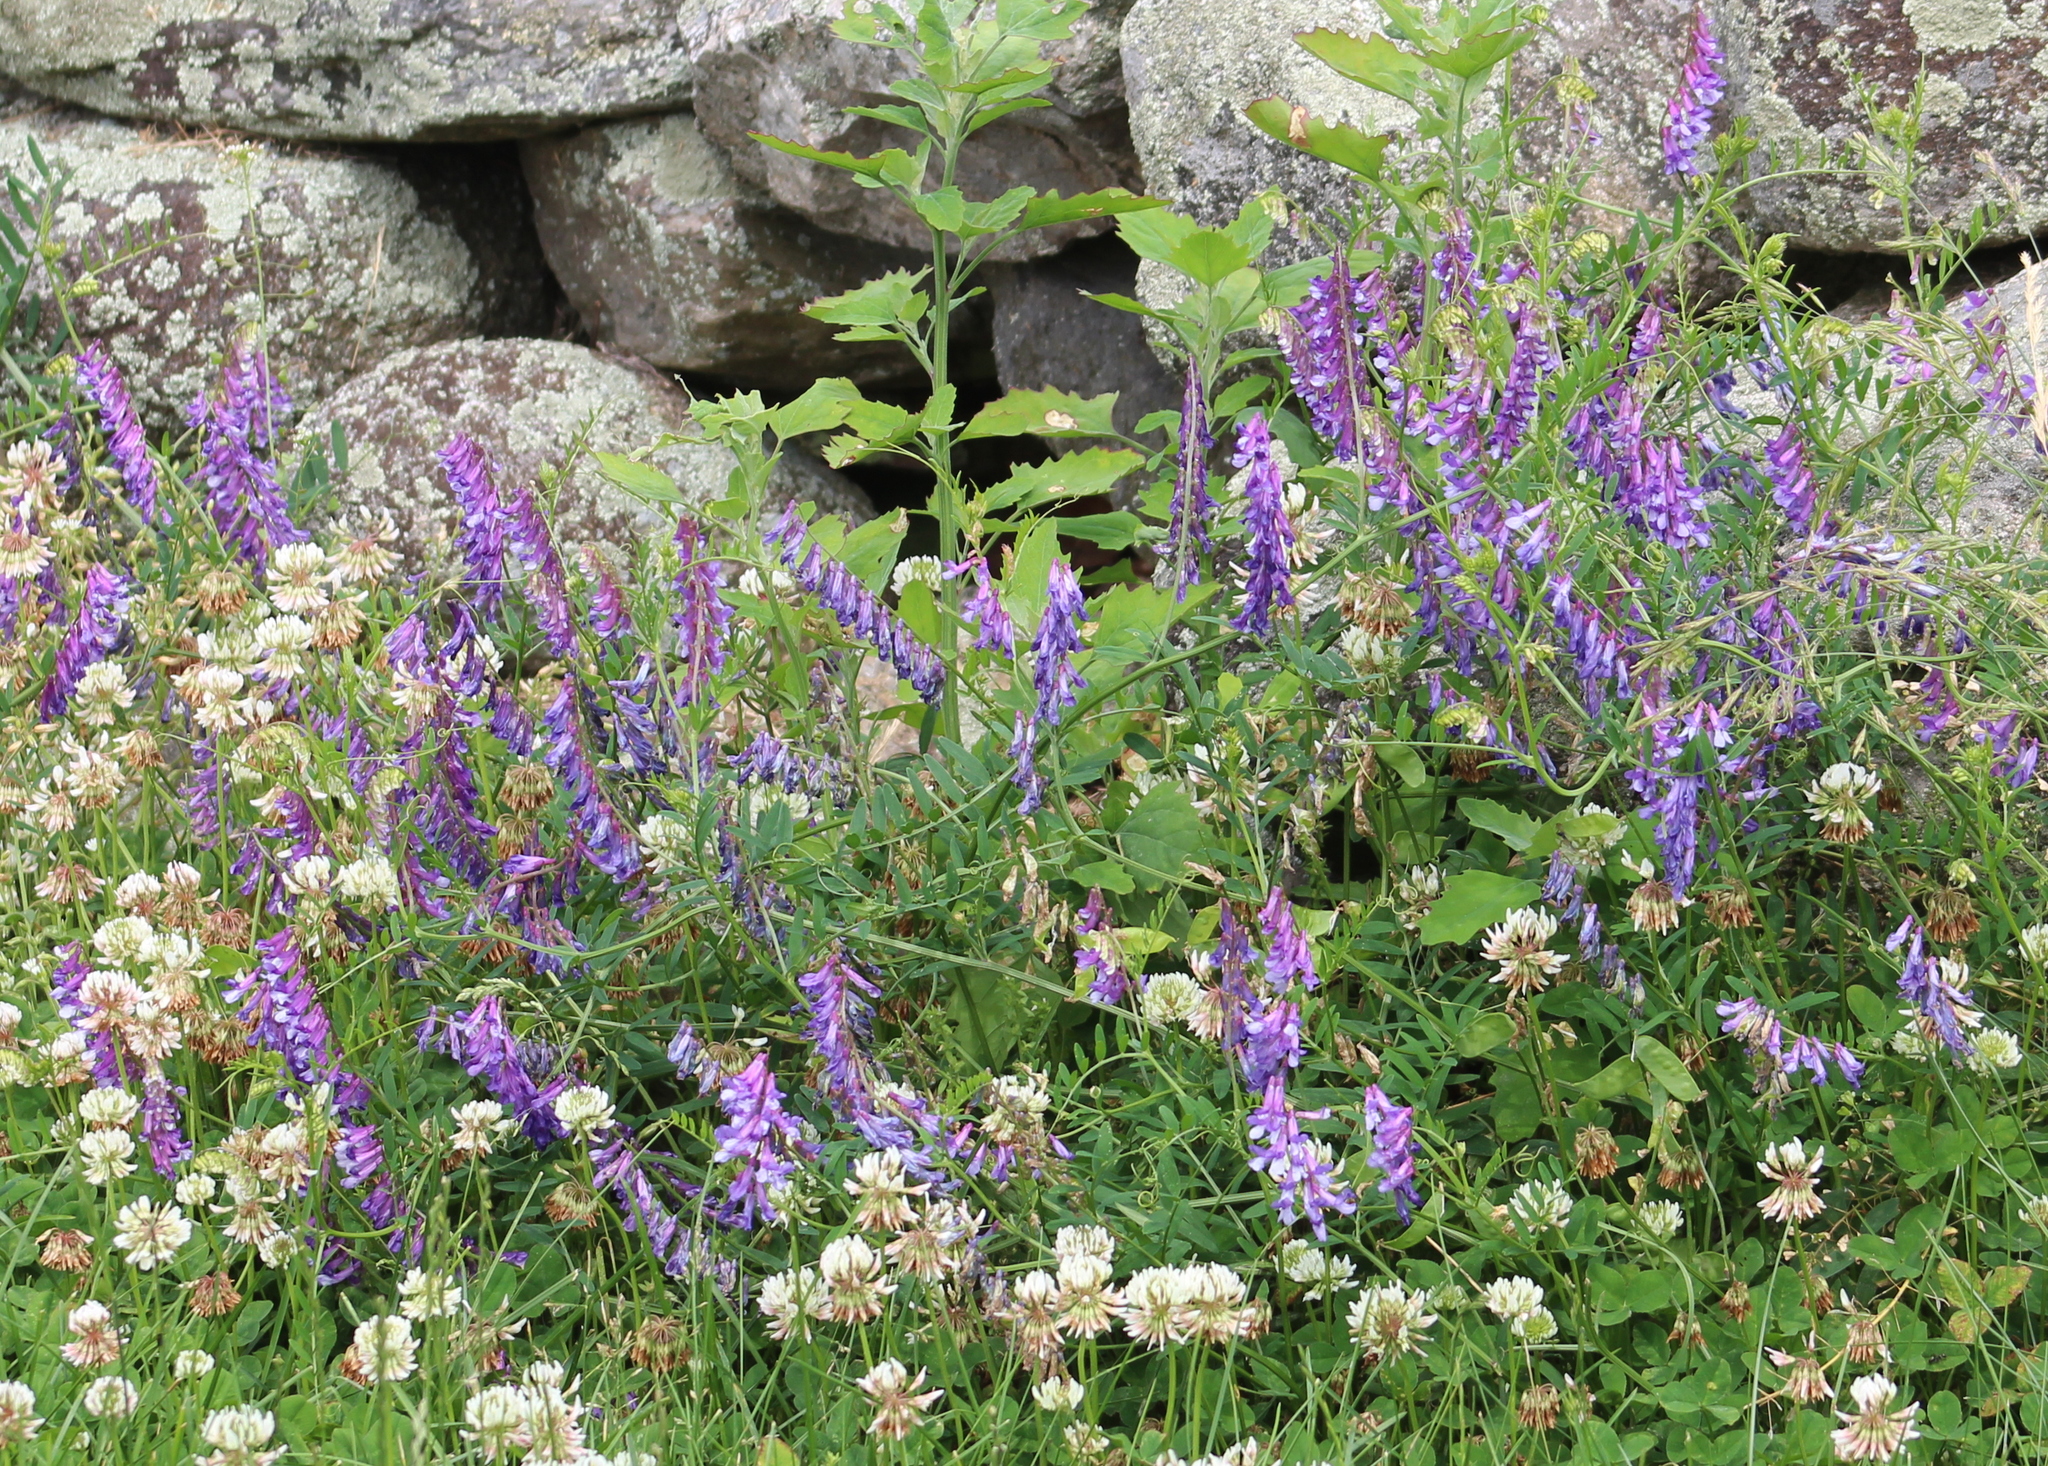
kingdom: Plantae
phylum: Tracheophyta
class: Magnoliopsida
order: Fabales
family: Fabaceae
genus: Vicia
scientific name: Vicia villosa
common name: Fodder vetch
